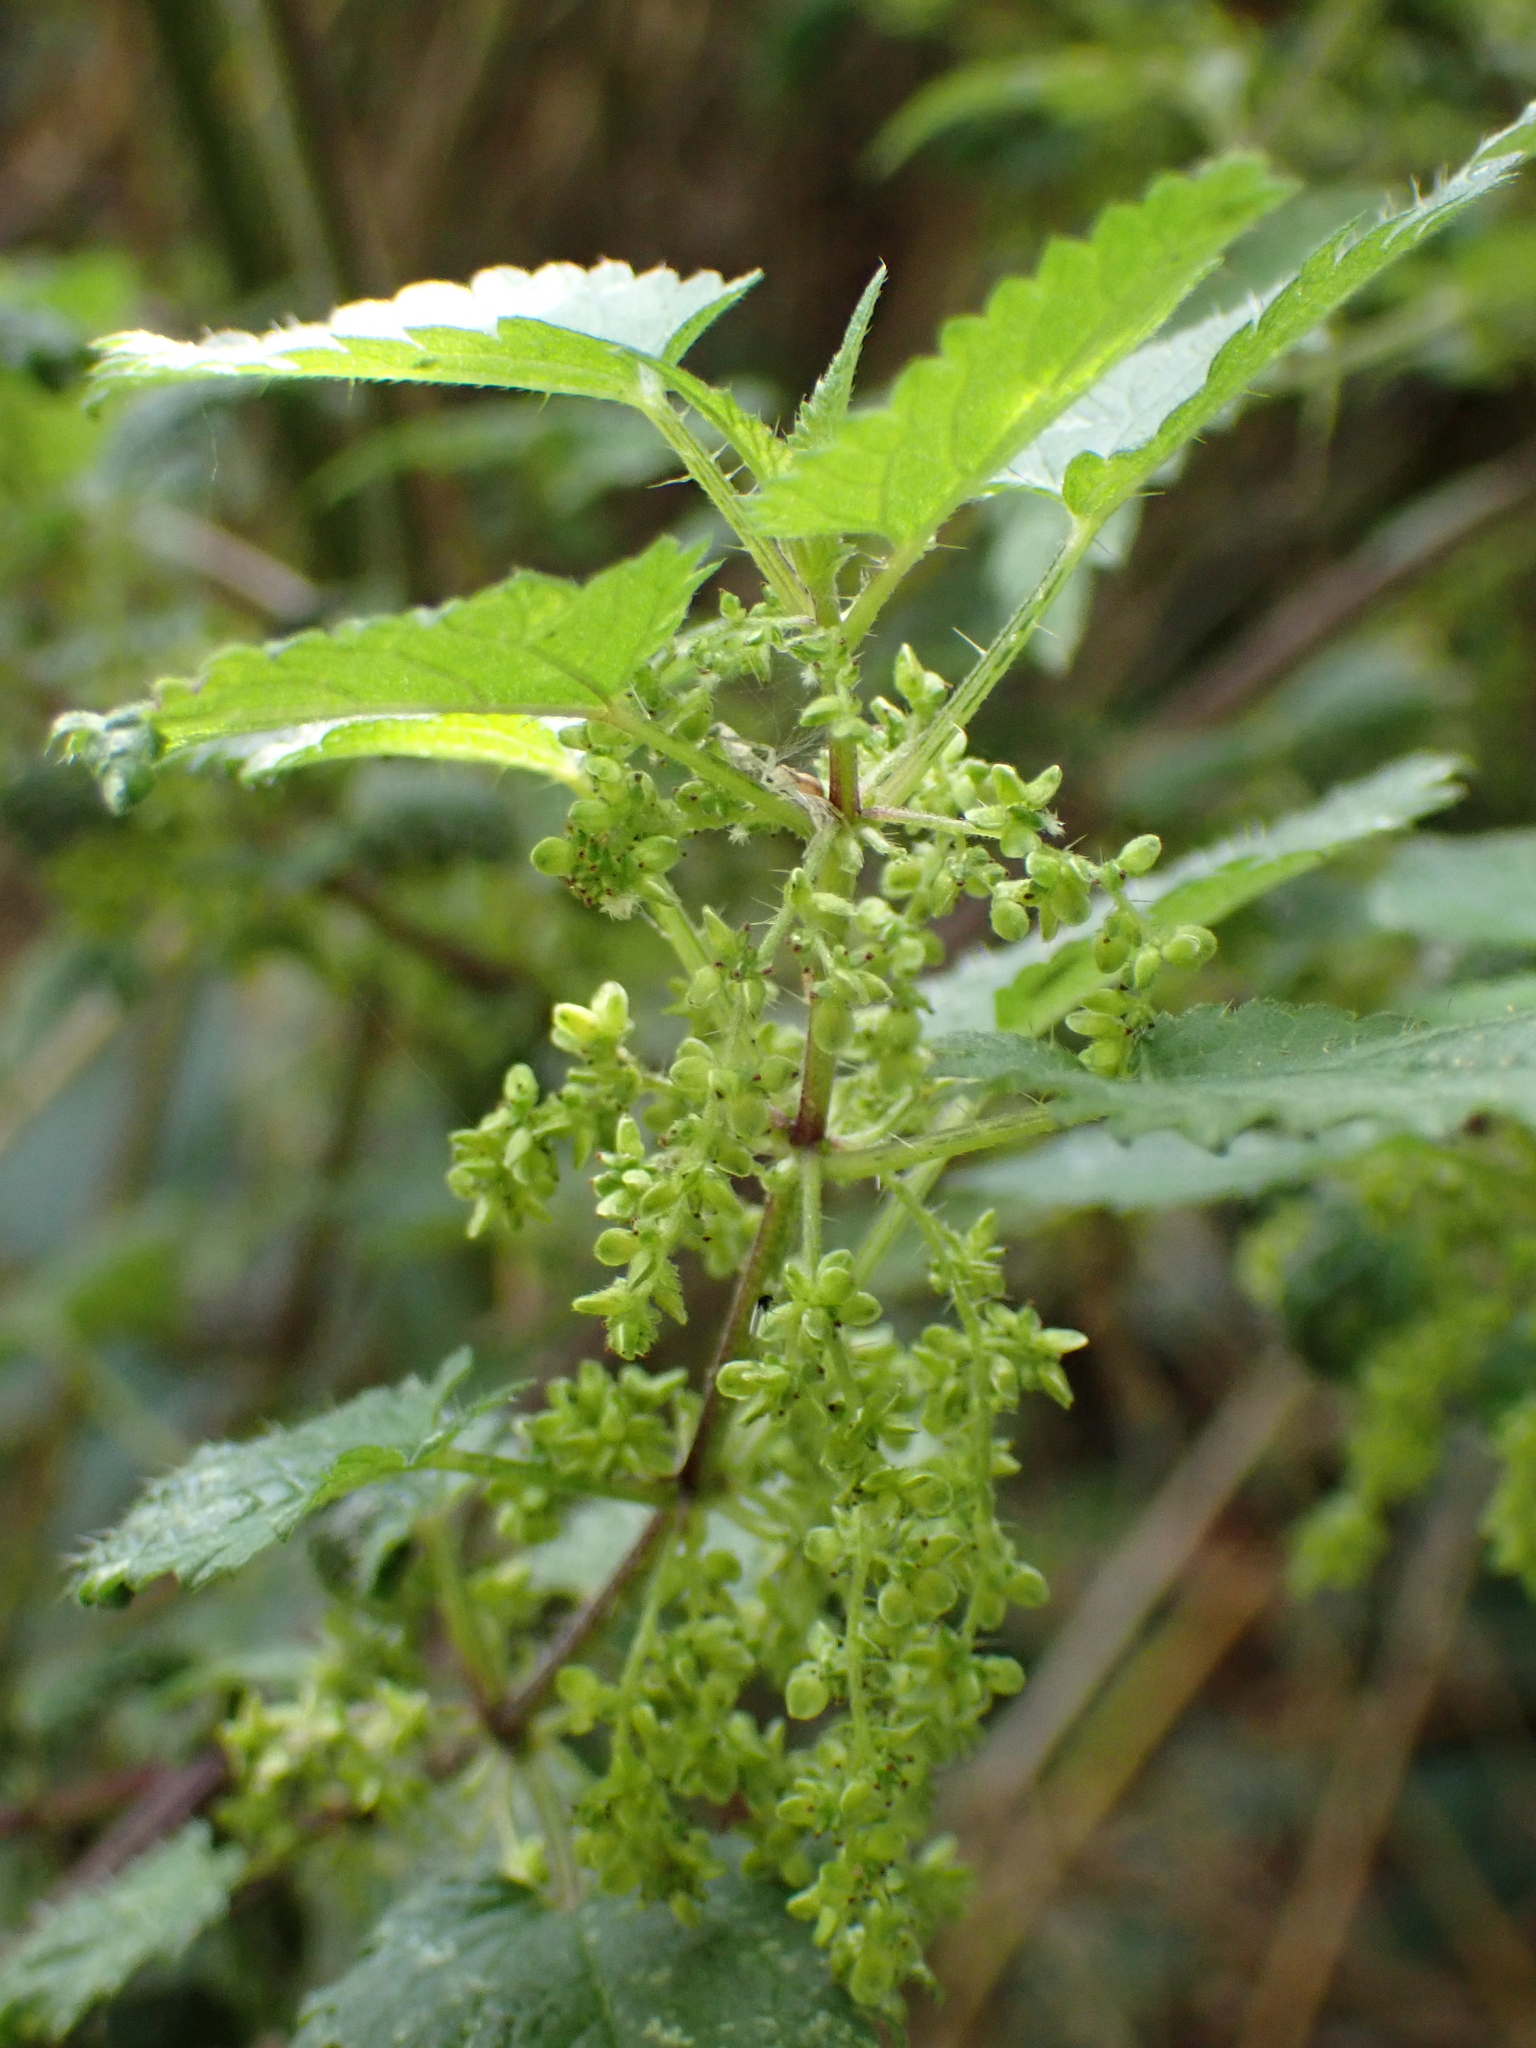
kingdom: Plantae
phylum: Tracheophyta
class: Magnoliopsida
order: Rosales
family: Urticaceae
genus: Urtica
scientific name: Urtica dioica
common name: Common nettle
